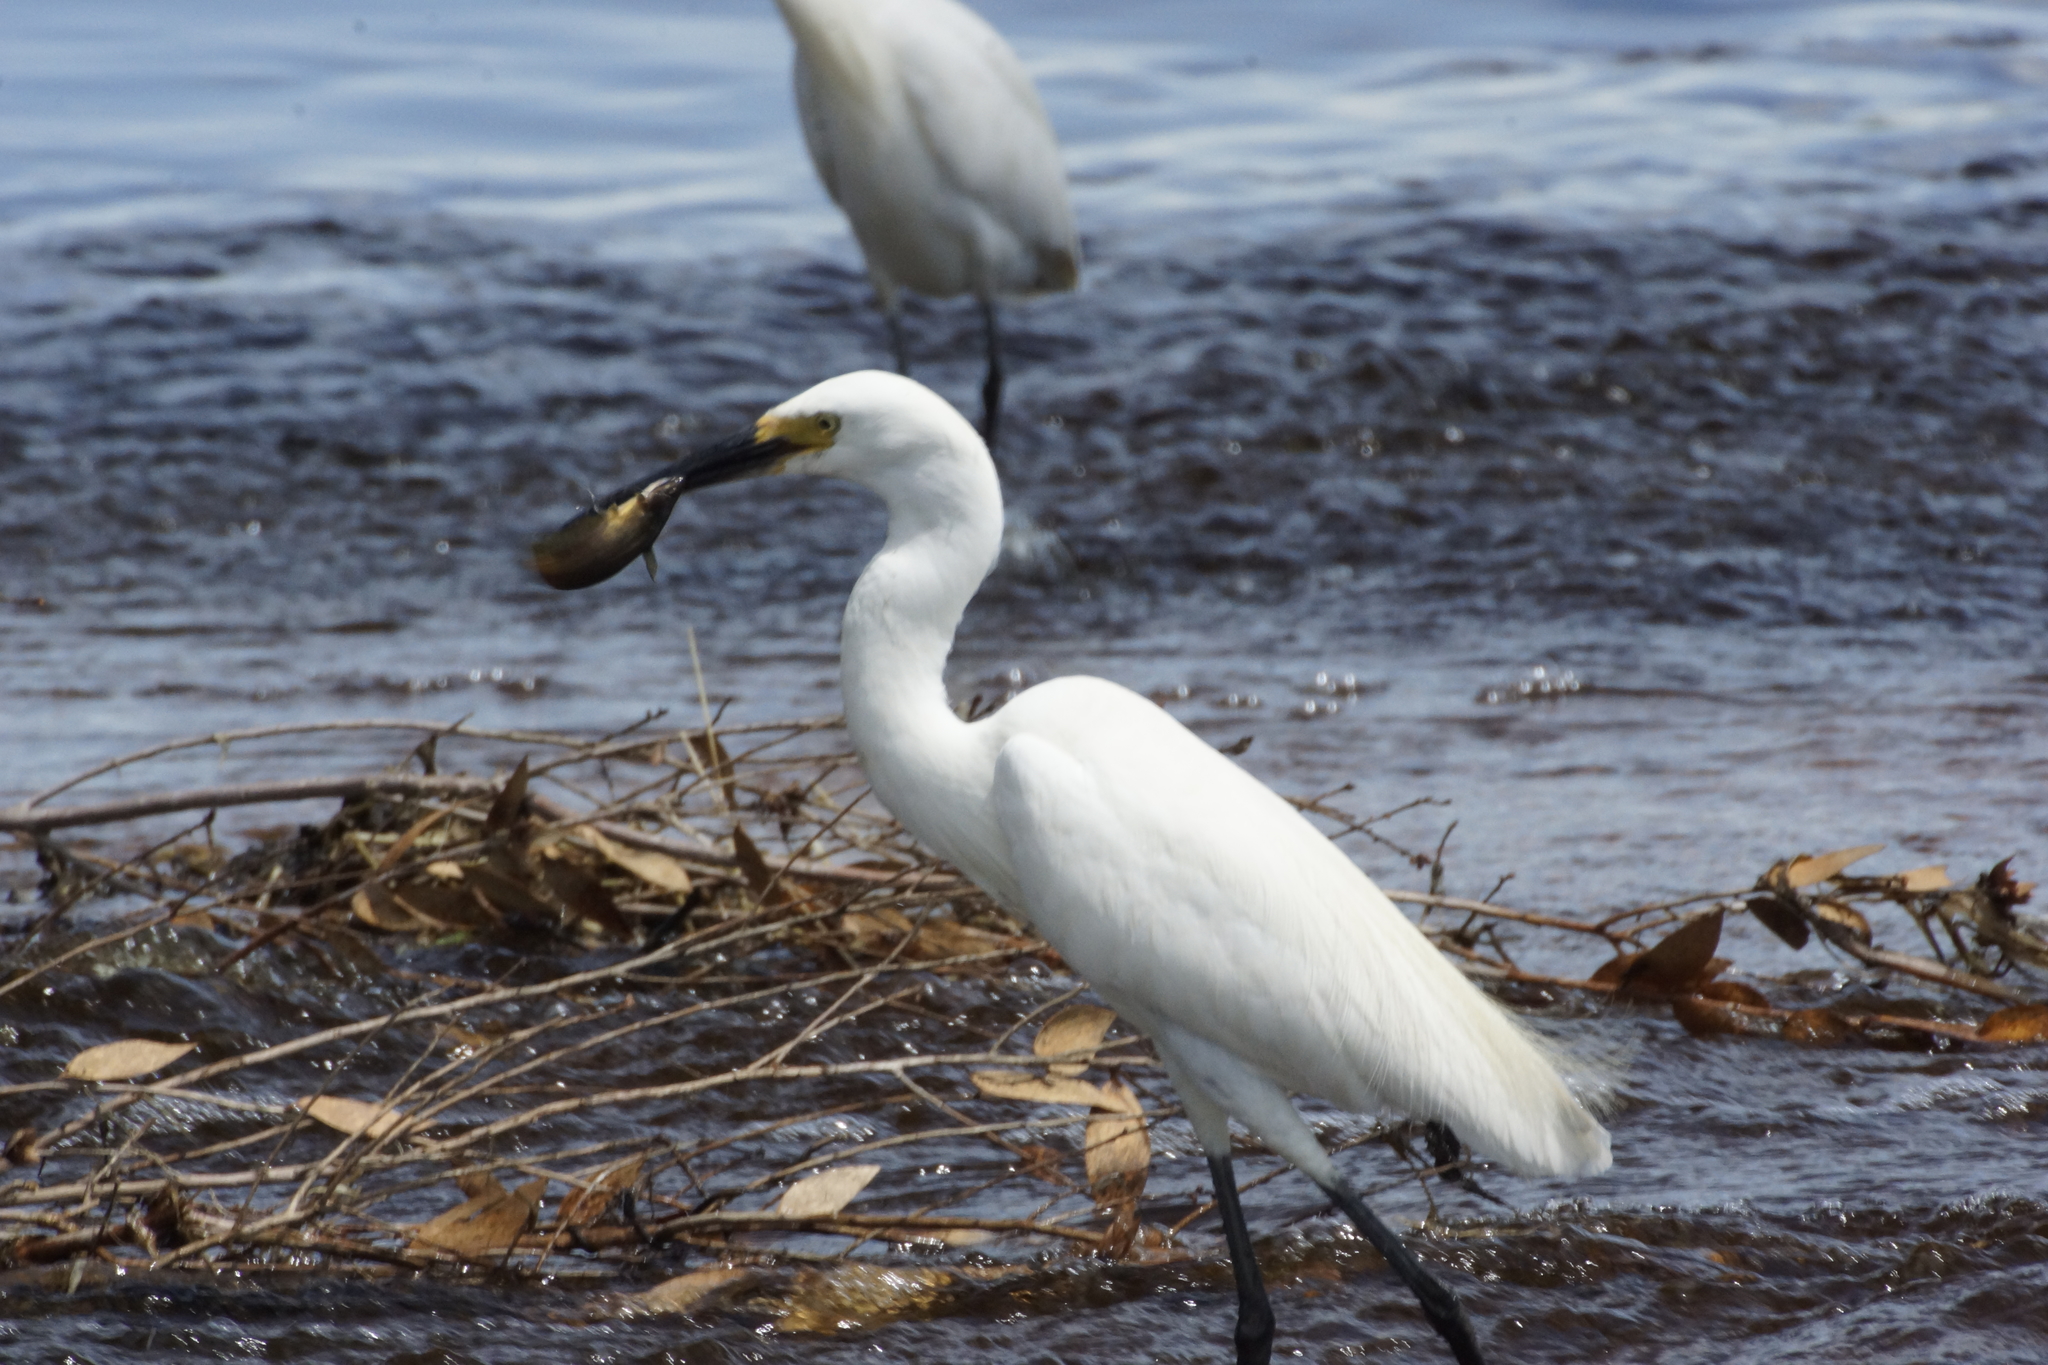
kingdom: Animalia
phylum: Chordata
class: Aves
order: Pelecaniformes
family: Ardeidae
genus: Egretta
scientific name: Egretta garzetta
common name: Little egret
